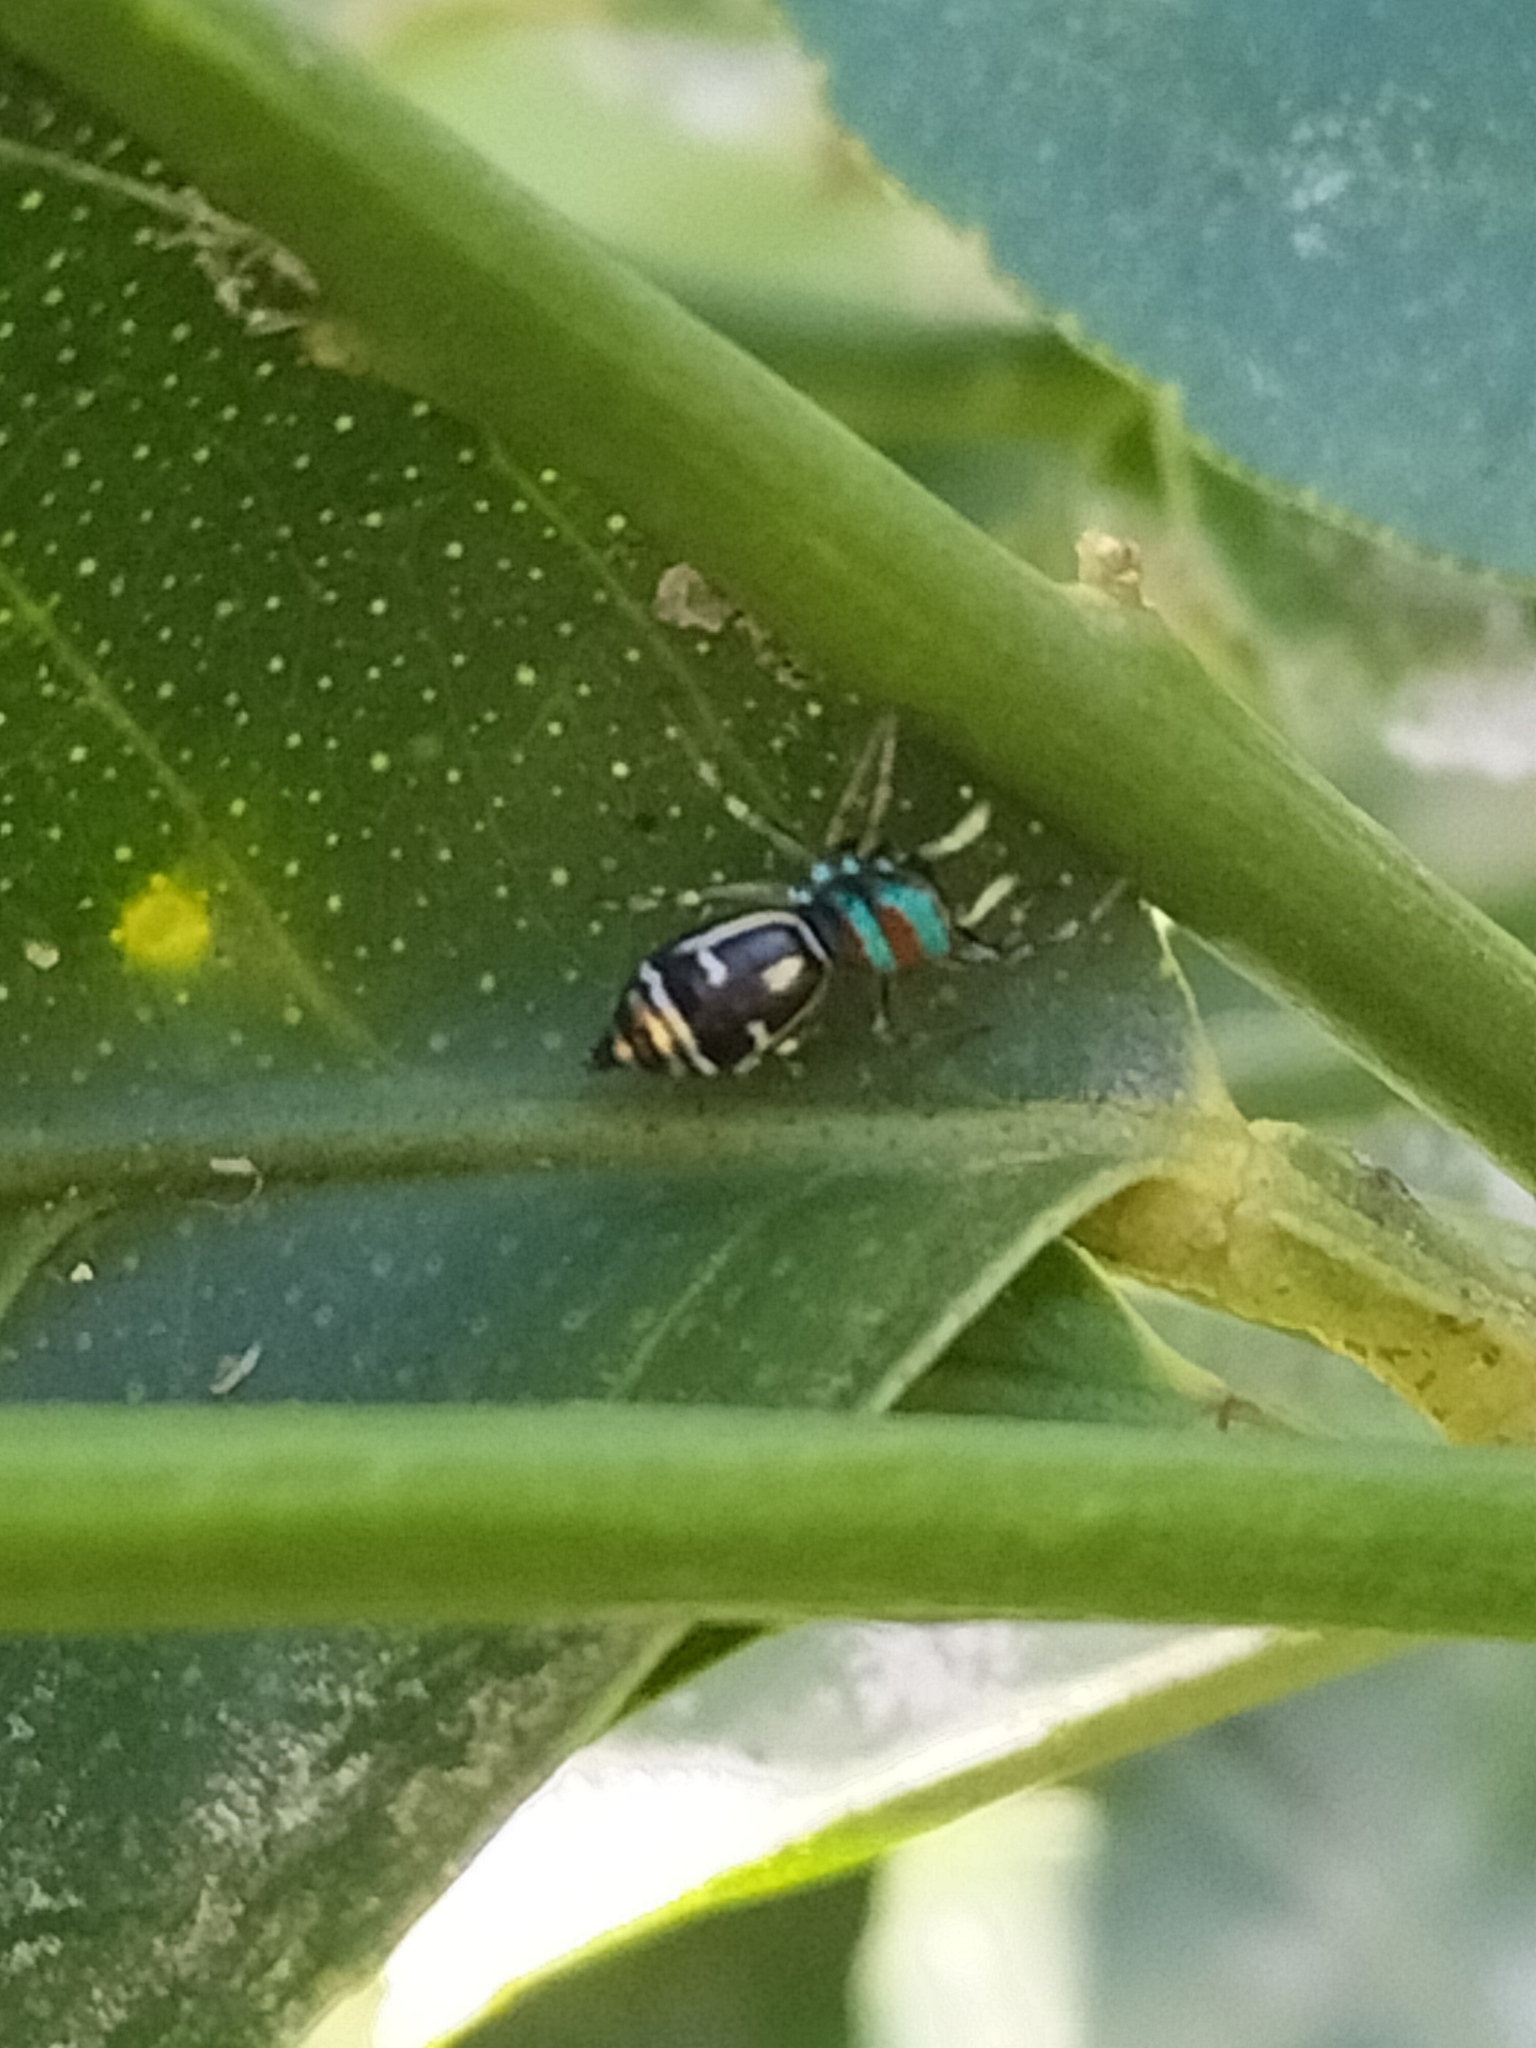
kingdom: Animalia
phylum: Arthropoda
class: Arachnida
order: Araneae
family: Salticidae
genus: Cosmophasis
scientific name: Cosmophasis micarioides
